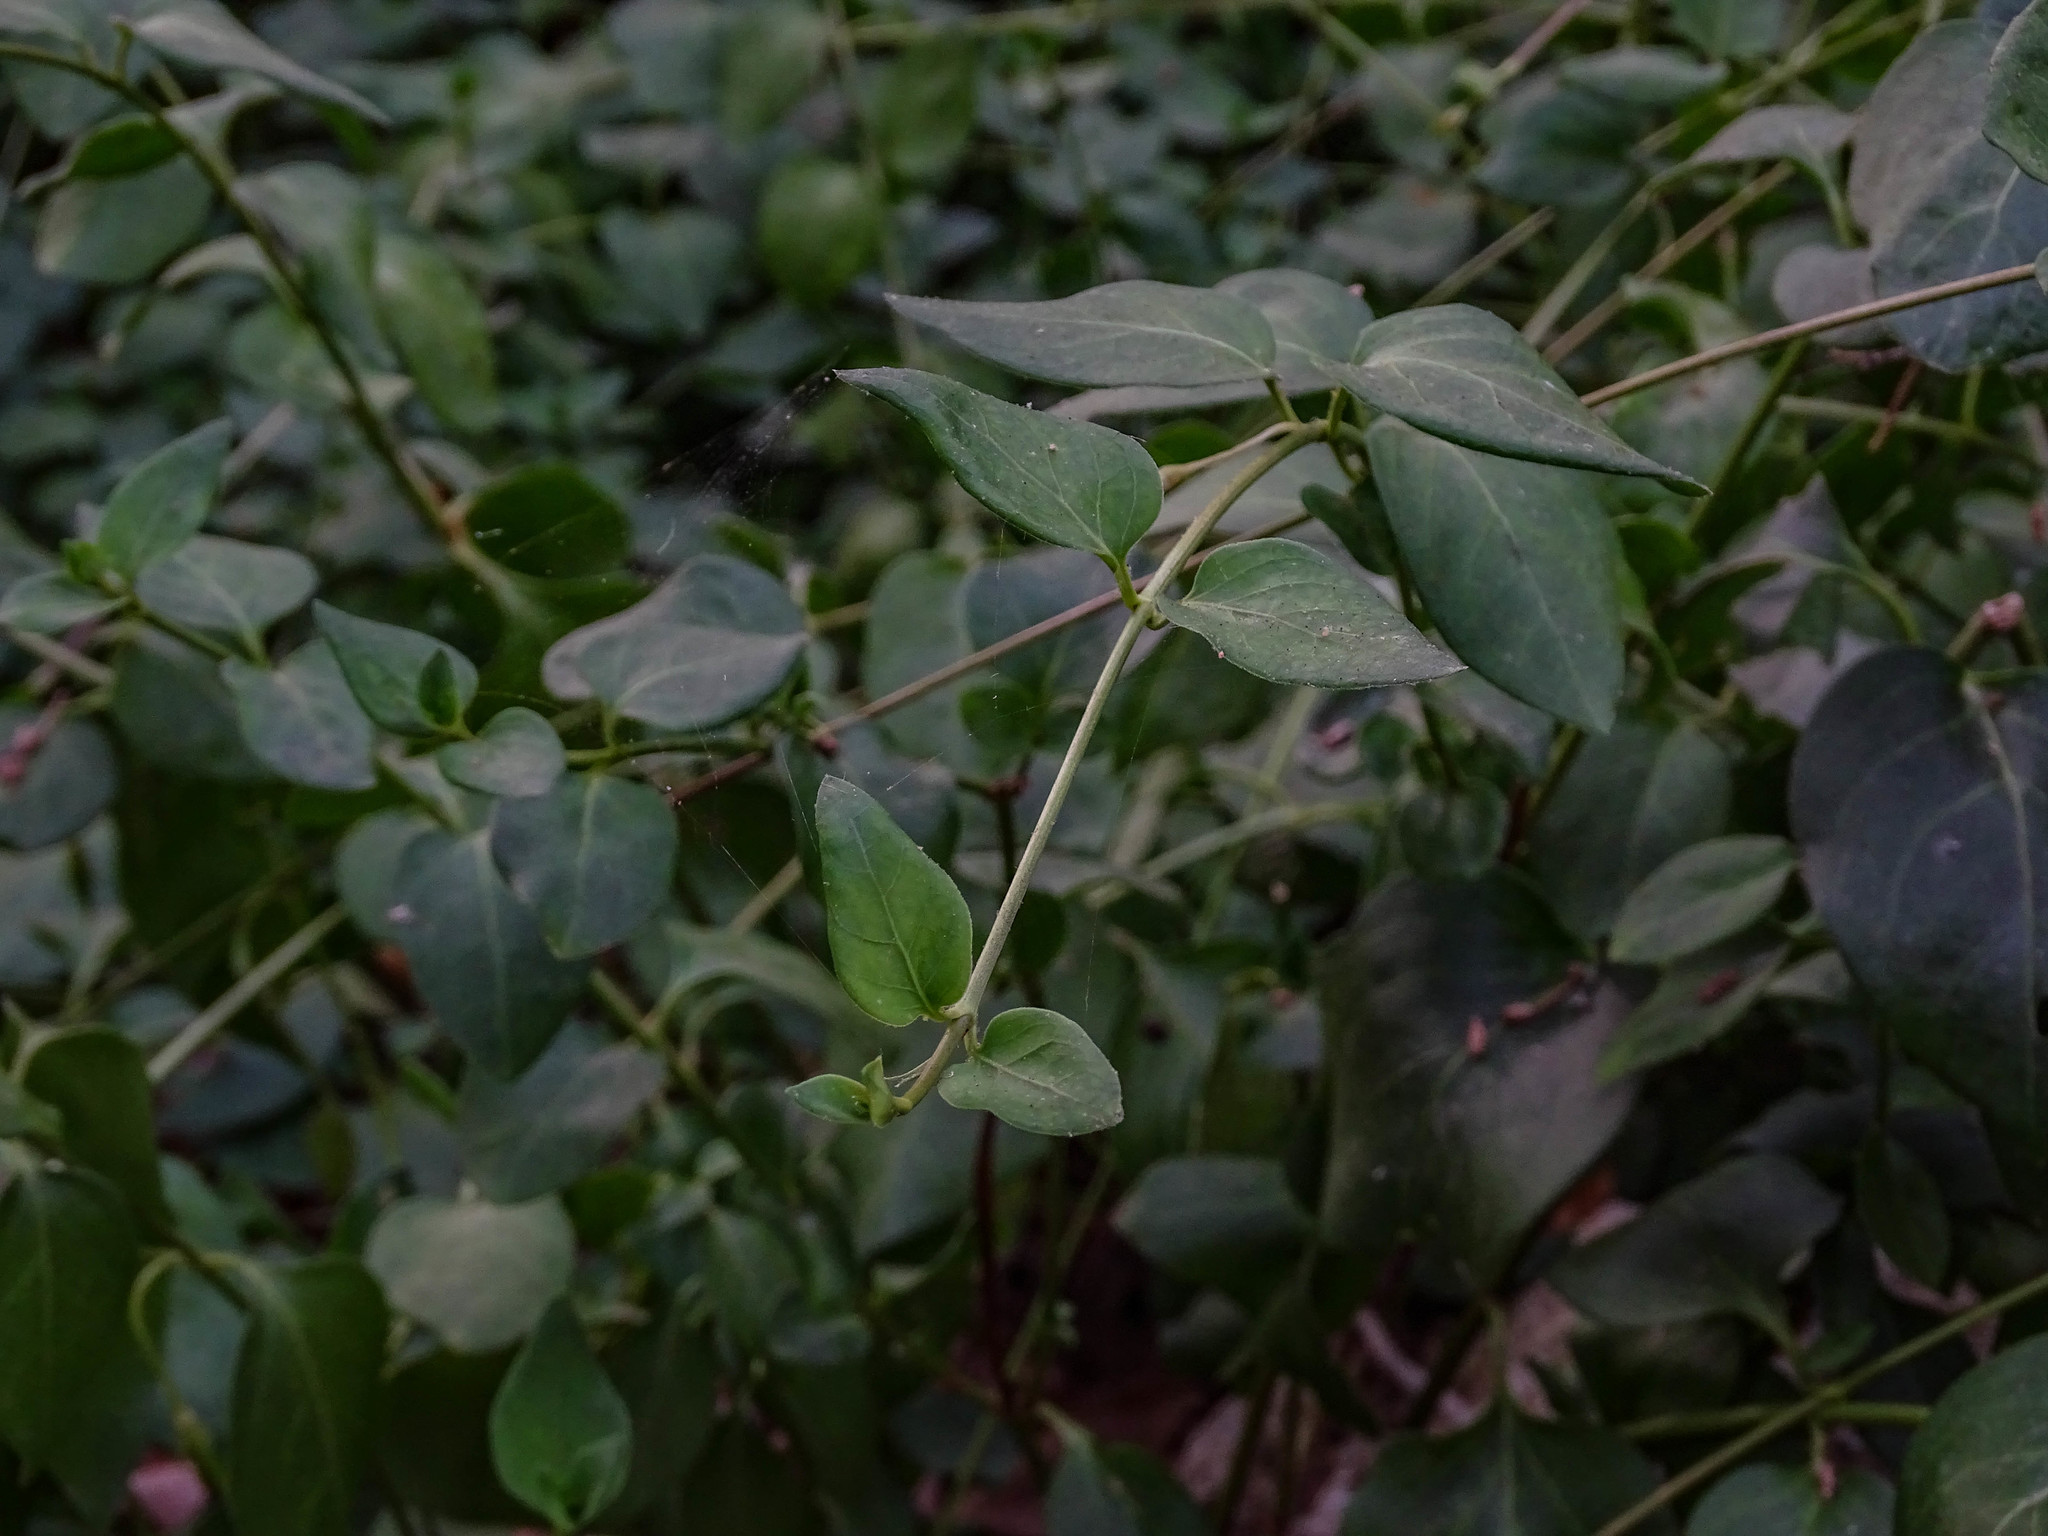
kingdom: Plantae
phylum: Tracheophyta
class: Magnoliopsida
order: Gentianales
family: Apocynaceae
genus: Vinca
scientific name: Vinca major
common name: Greater periwinkle
